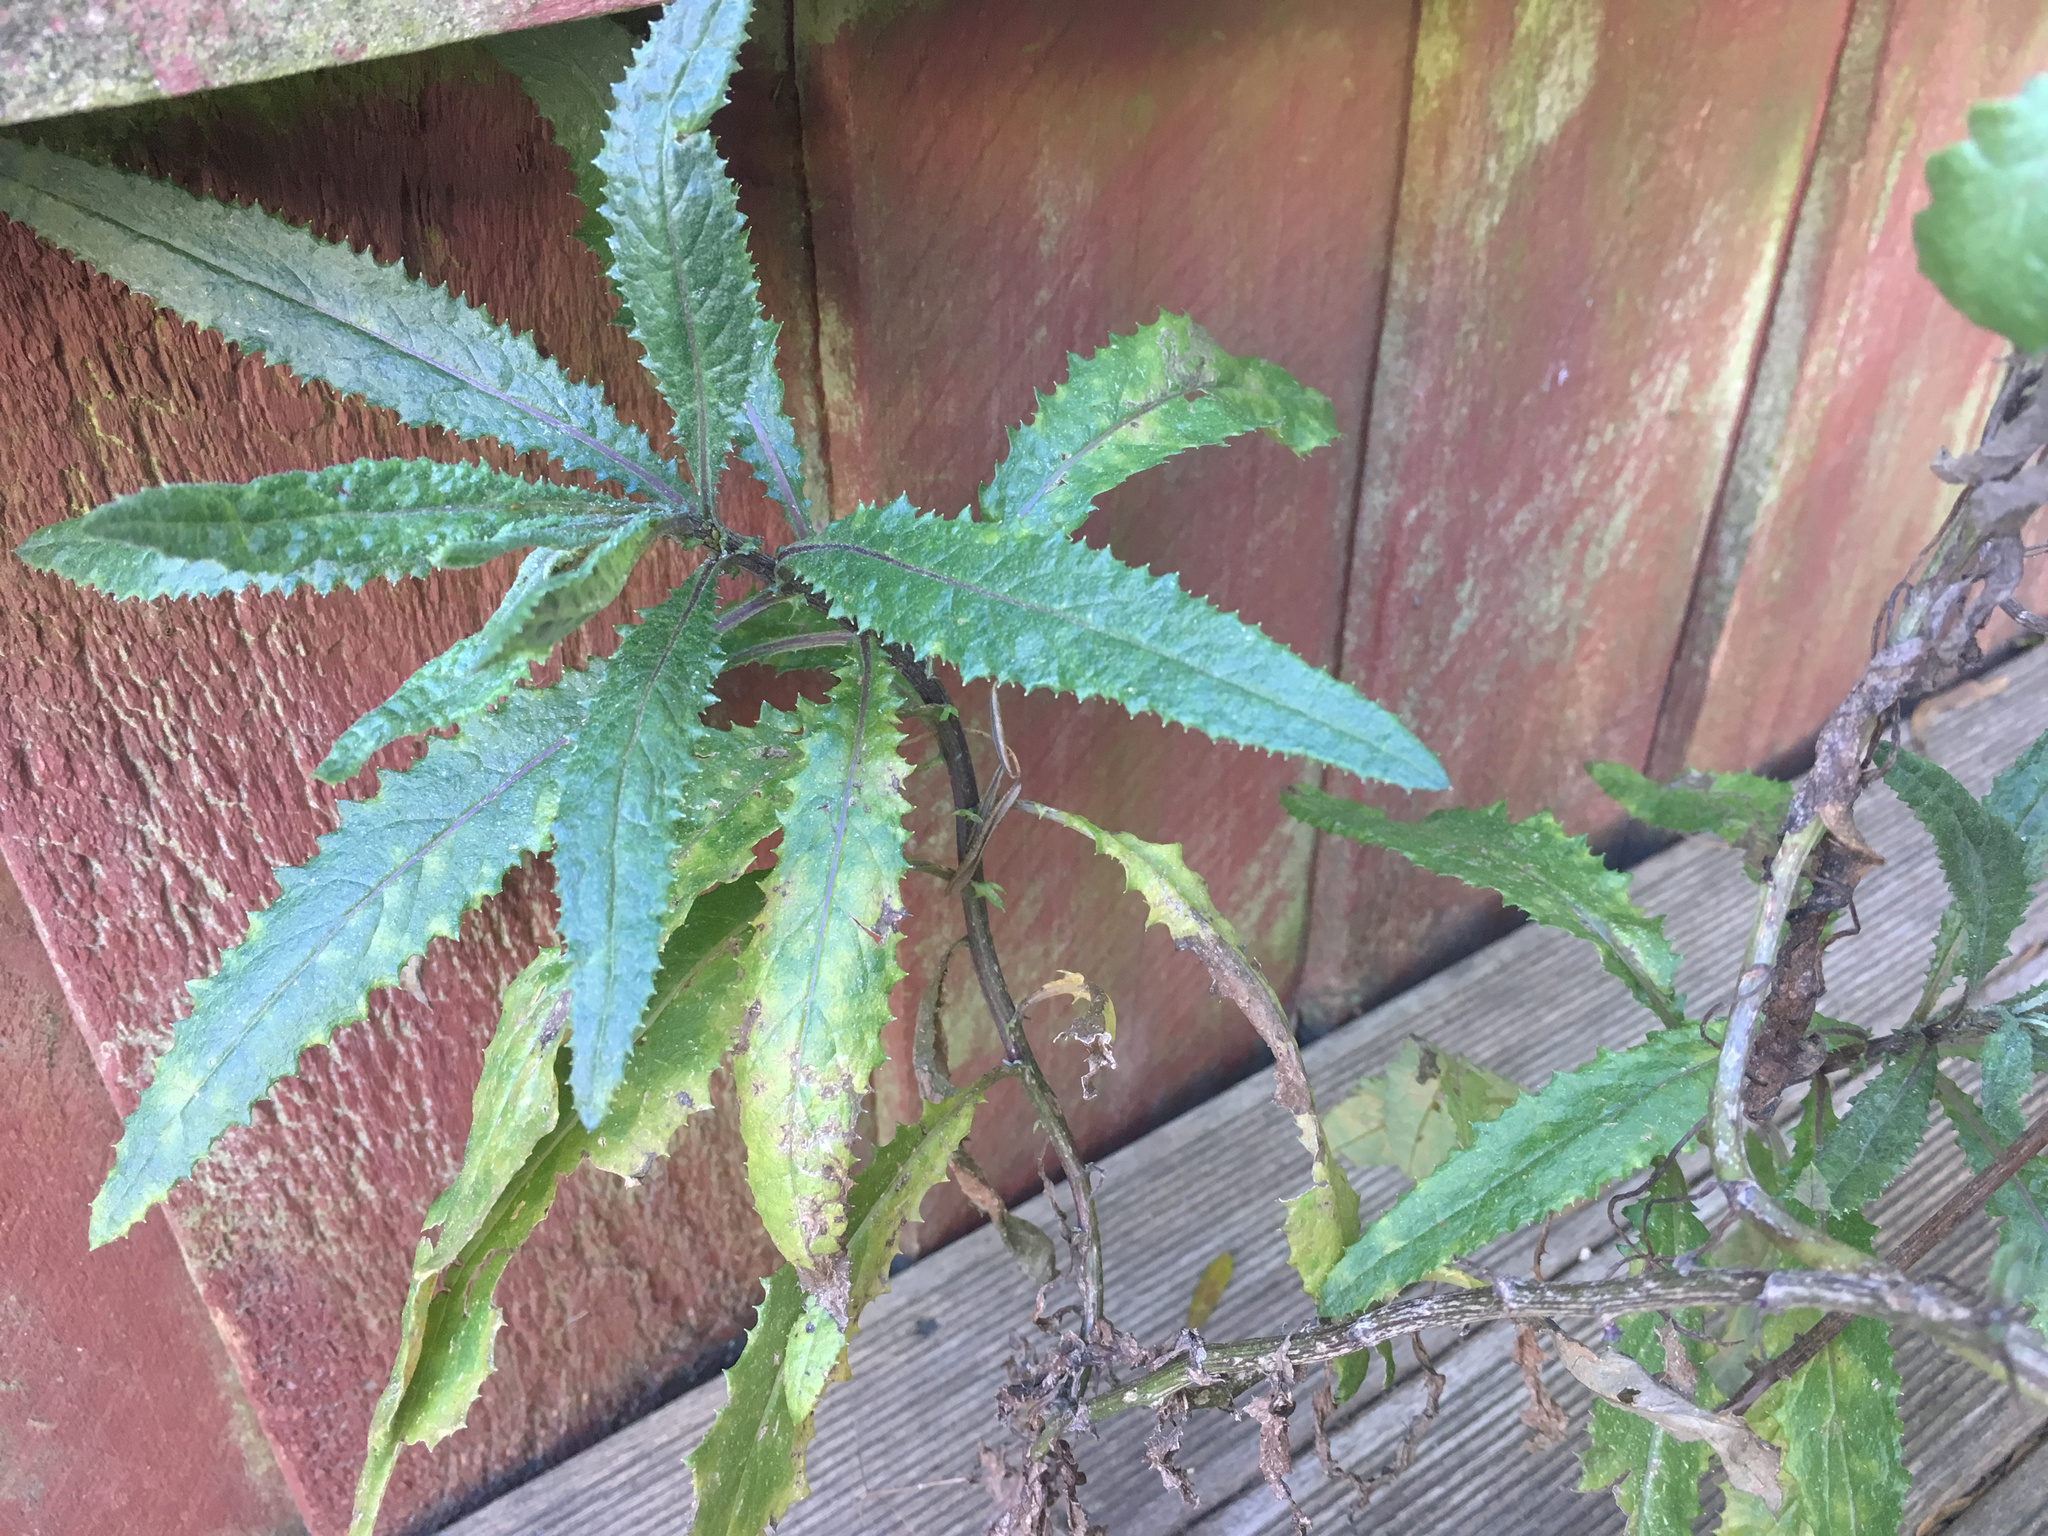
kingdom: Plantae
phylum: Tracheophyta
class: Magnoliopsida
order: Asterales
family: Asteraceae
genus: Senecio
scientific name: Senecio minimus
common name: Toothed fireweed
